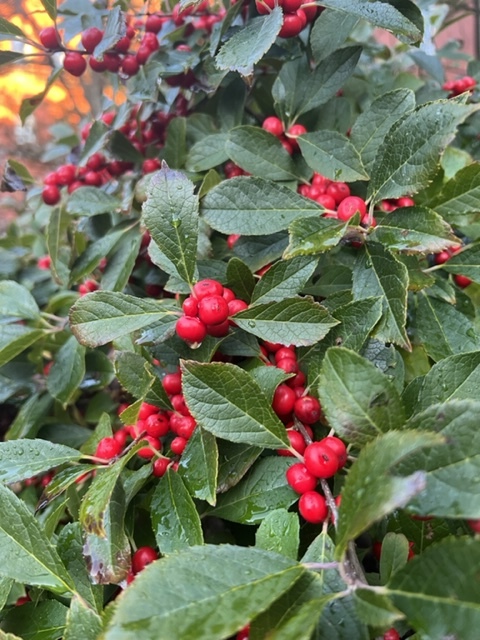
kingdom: Plantae
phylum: Tracheophyta
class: Magnoliopsida
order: Aquifoliales
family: Aquifoliaceae
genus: Ilex
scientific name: Ilex verticillata
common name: Virginia winterberry
